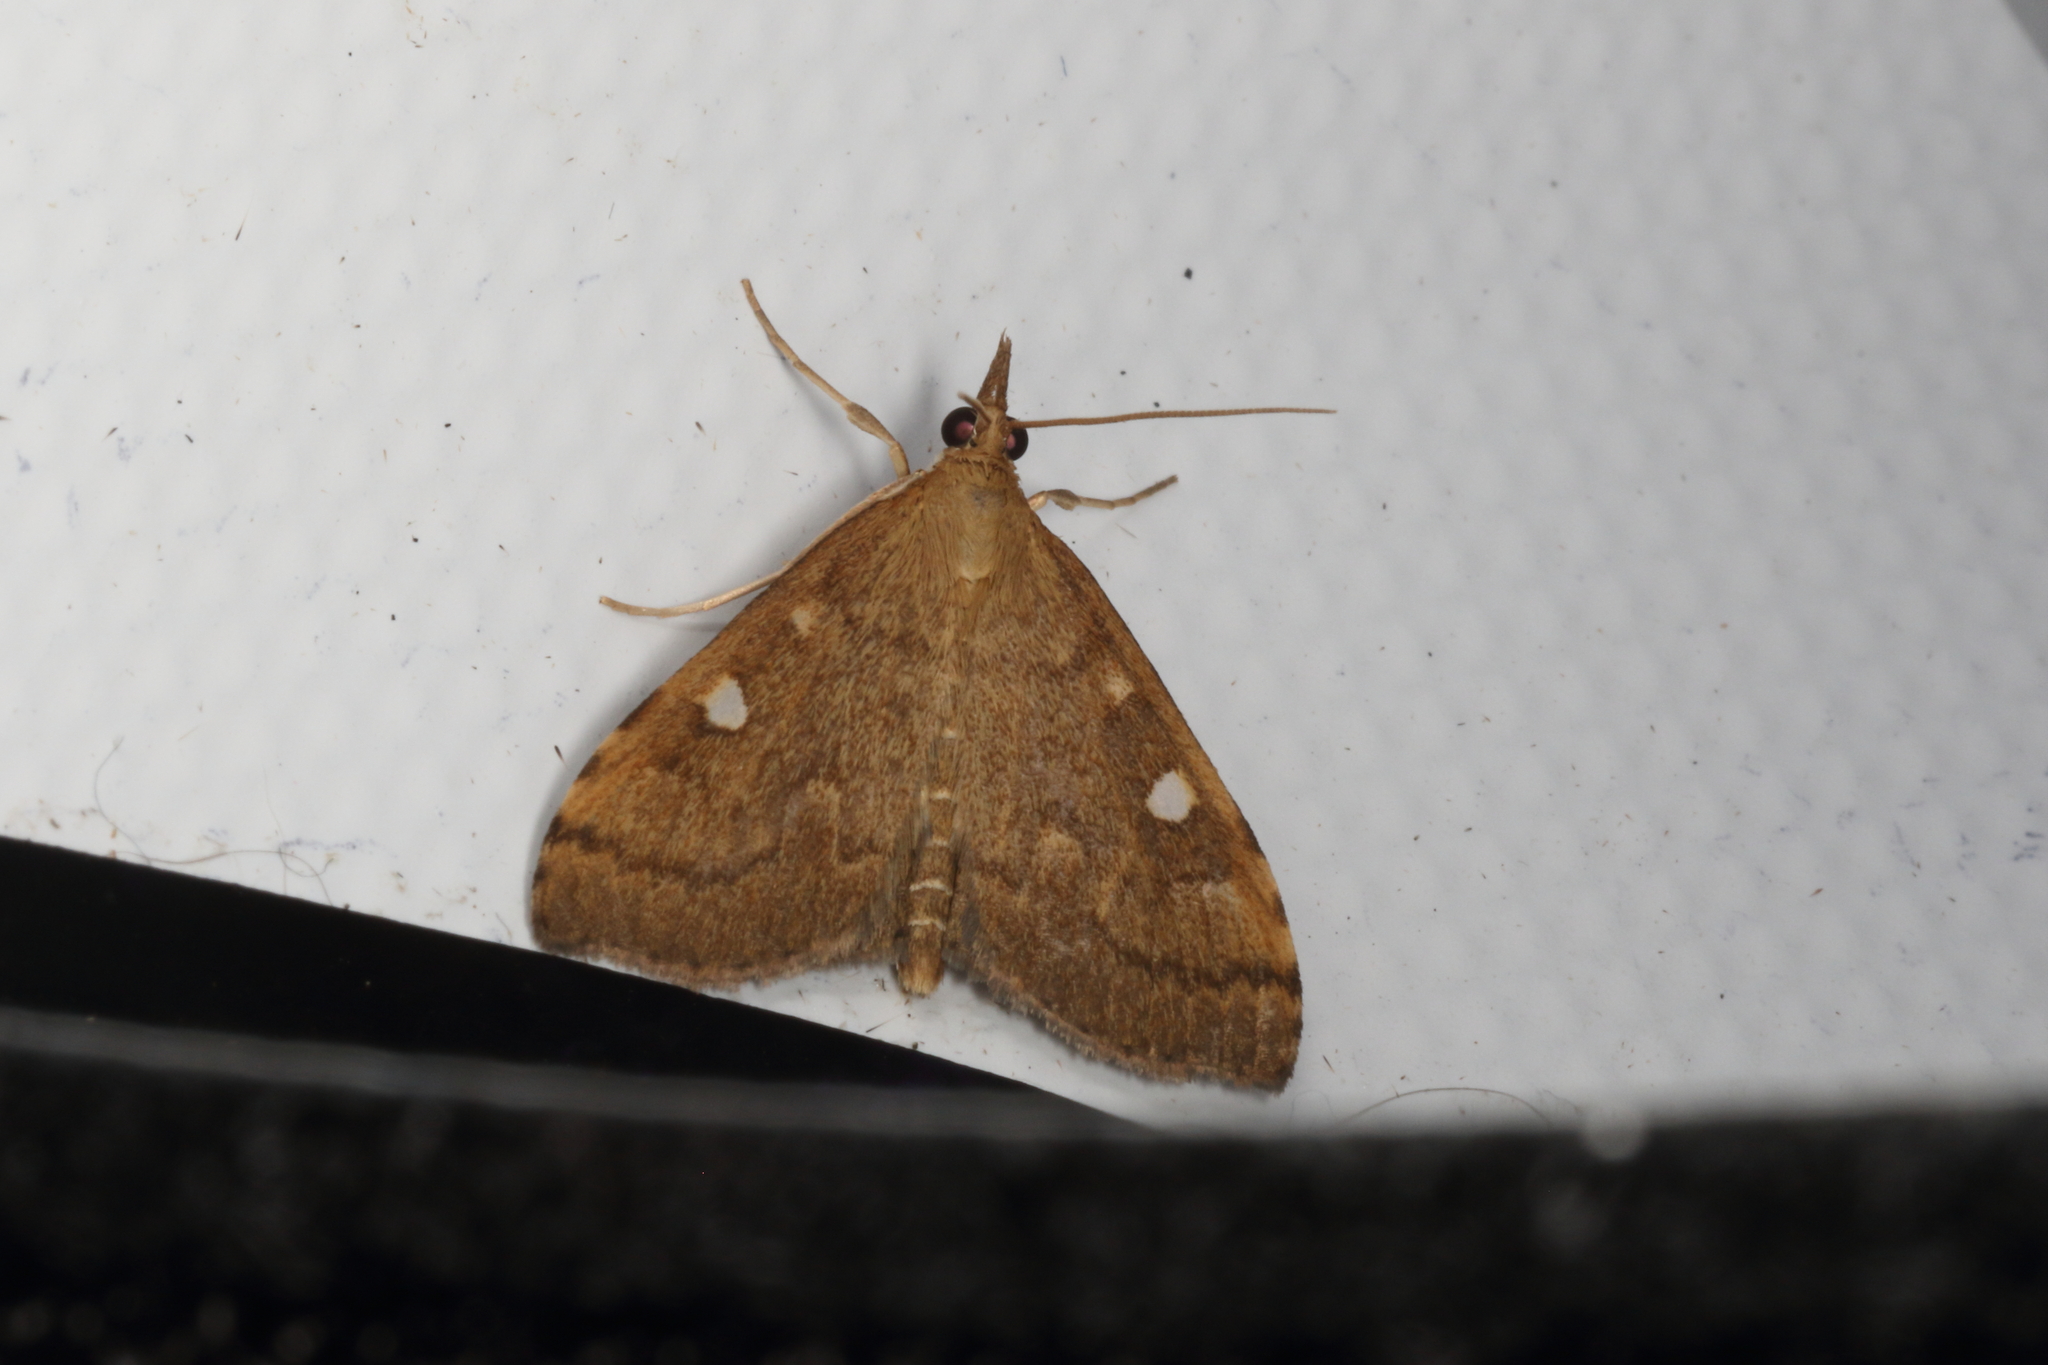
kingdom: Animalia
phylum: Arthropoda
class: Insecta
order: Lepidoptera
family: Crambidae
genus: Udea
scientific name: Udea Mnesictena marmarina
